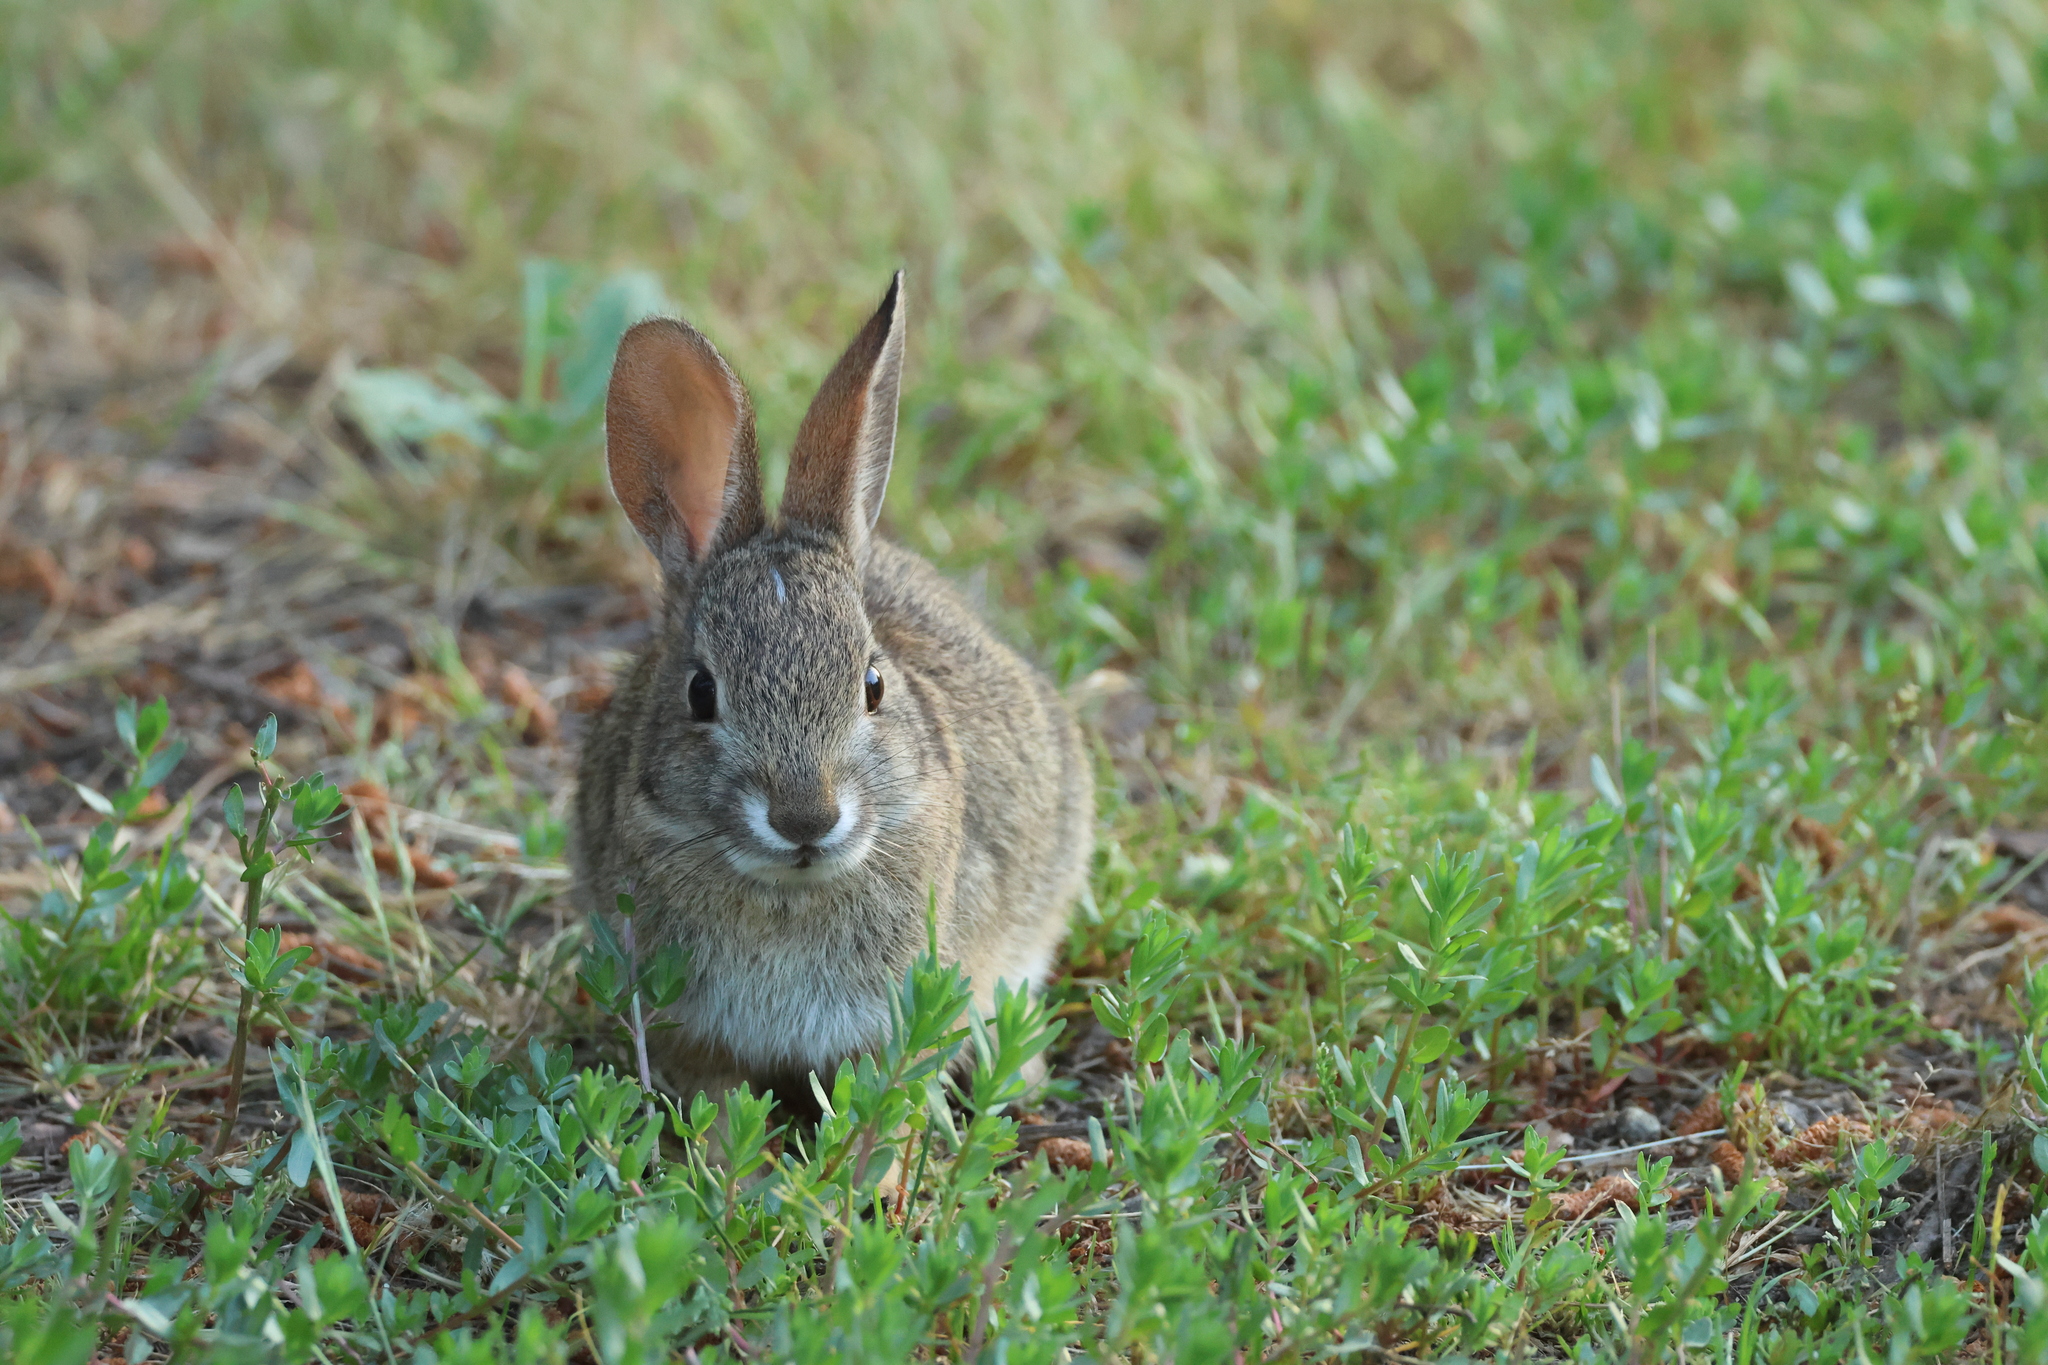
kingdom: Animalia
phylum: Chordata
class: Mammalia
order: Lagomorpha
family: Leporidae
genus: Sylvilagus
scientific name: Sylvilagus audubonii
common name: Desert cottontail
